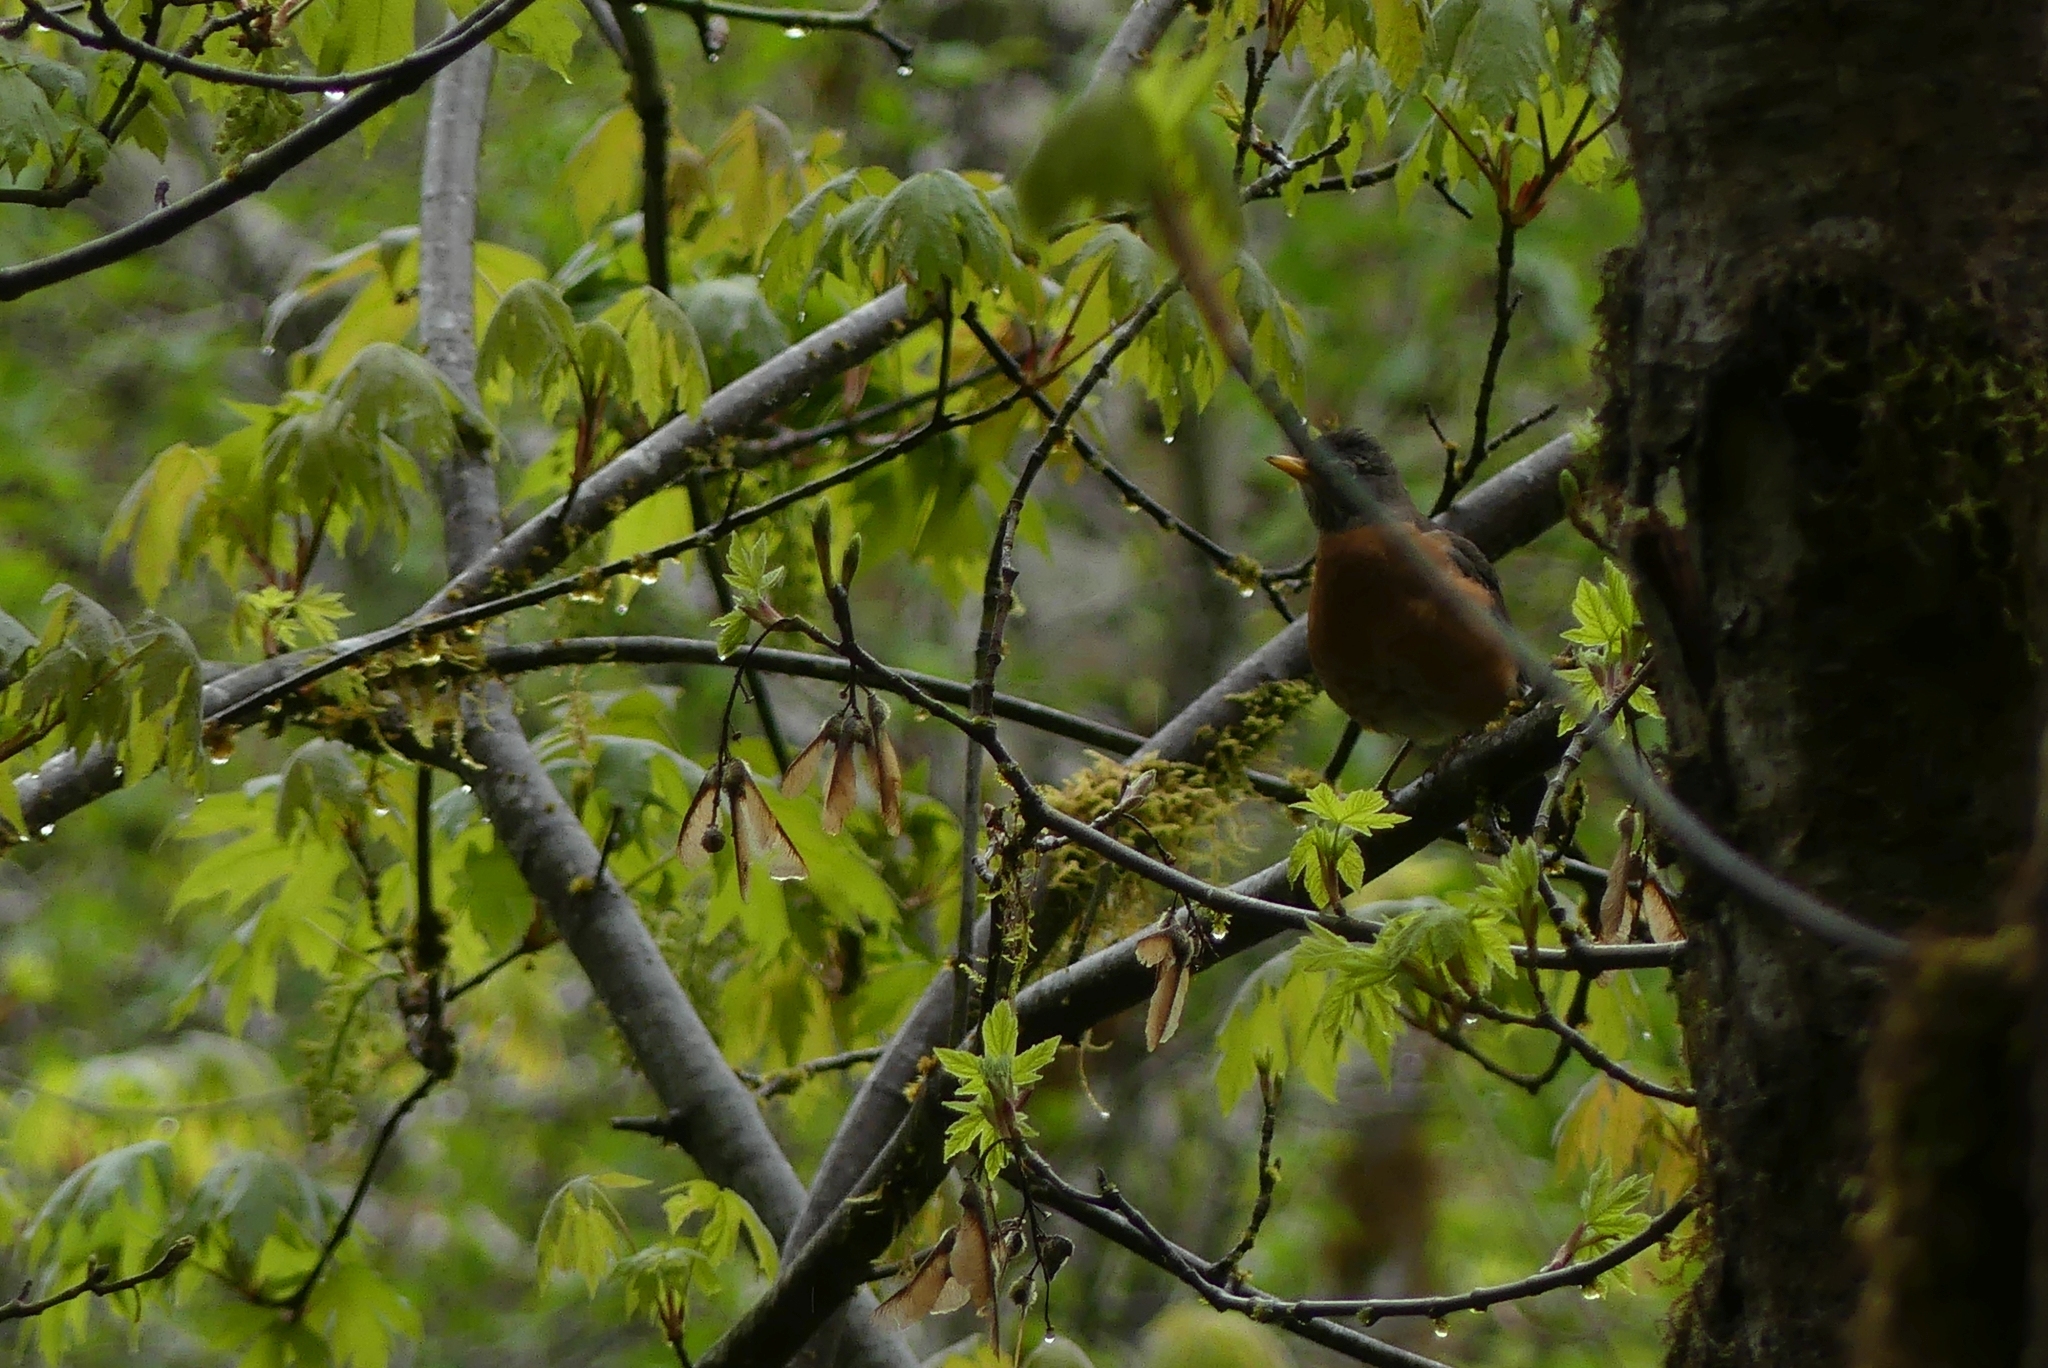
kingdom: Animalia
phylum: Chordata
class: Aves
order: Passeriformes
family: Turdidae
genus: Turdus
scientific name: Turdus migratorius
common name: American robin
